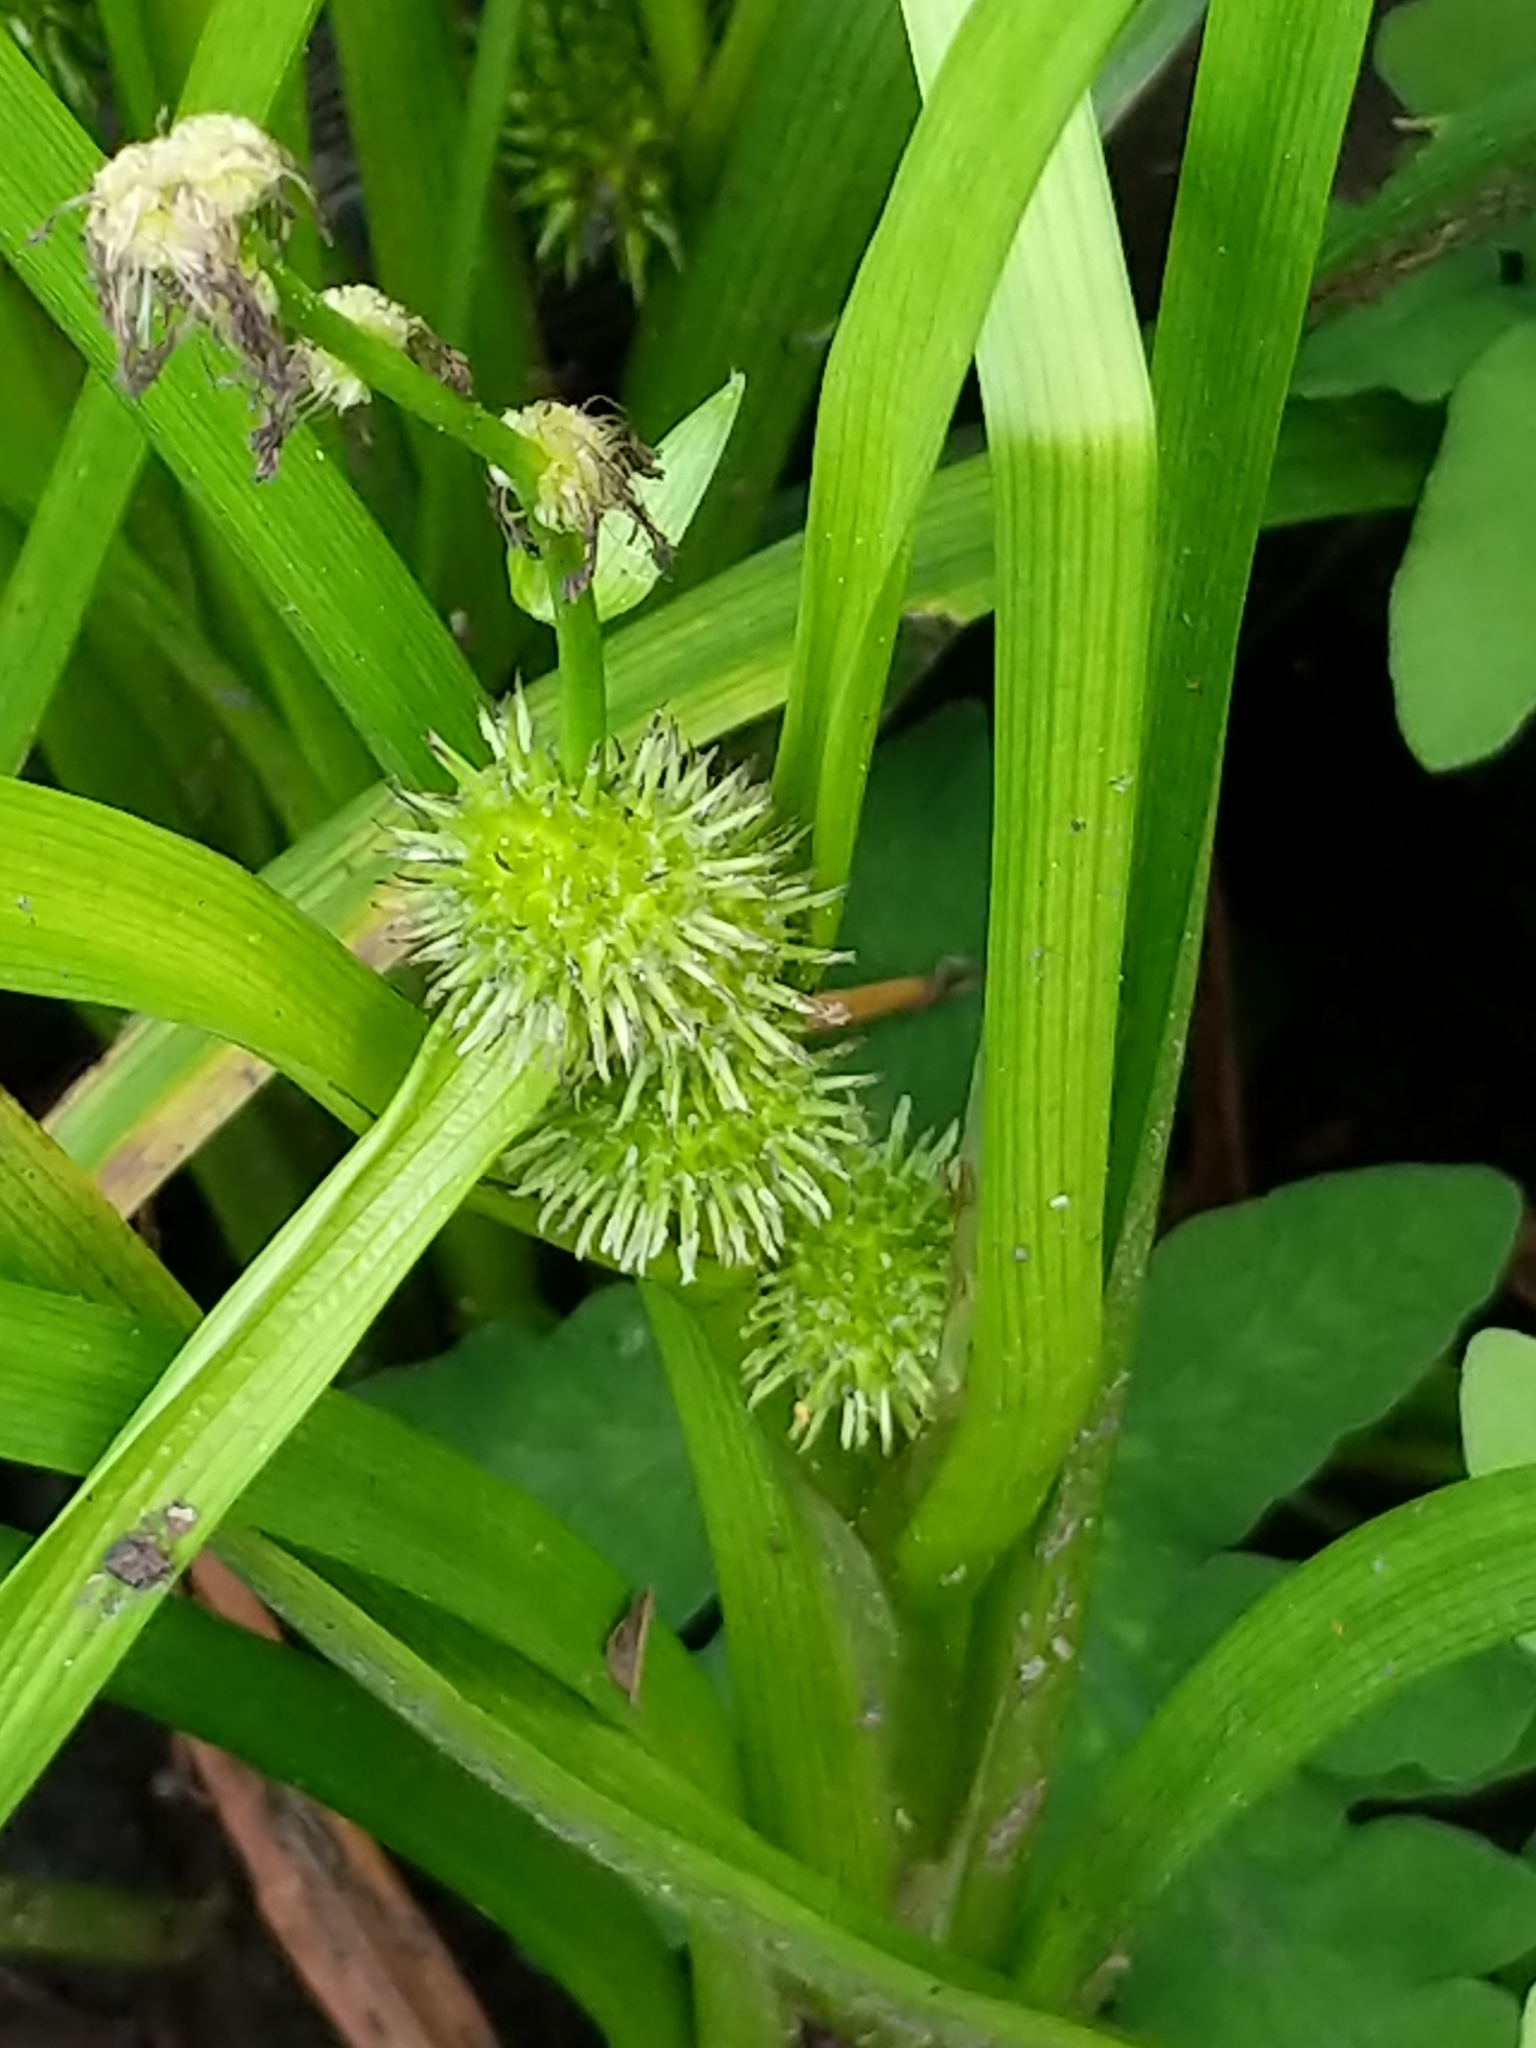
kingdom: Plantae
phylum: Tracheophyta
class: Liliopsida
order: Poales
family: Typhaceae
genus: Sparganium
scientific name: Sparganium americanum
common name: American burreed
